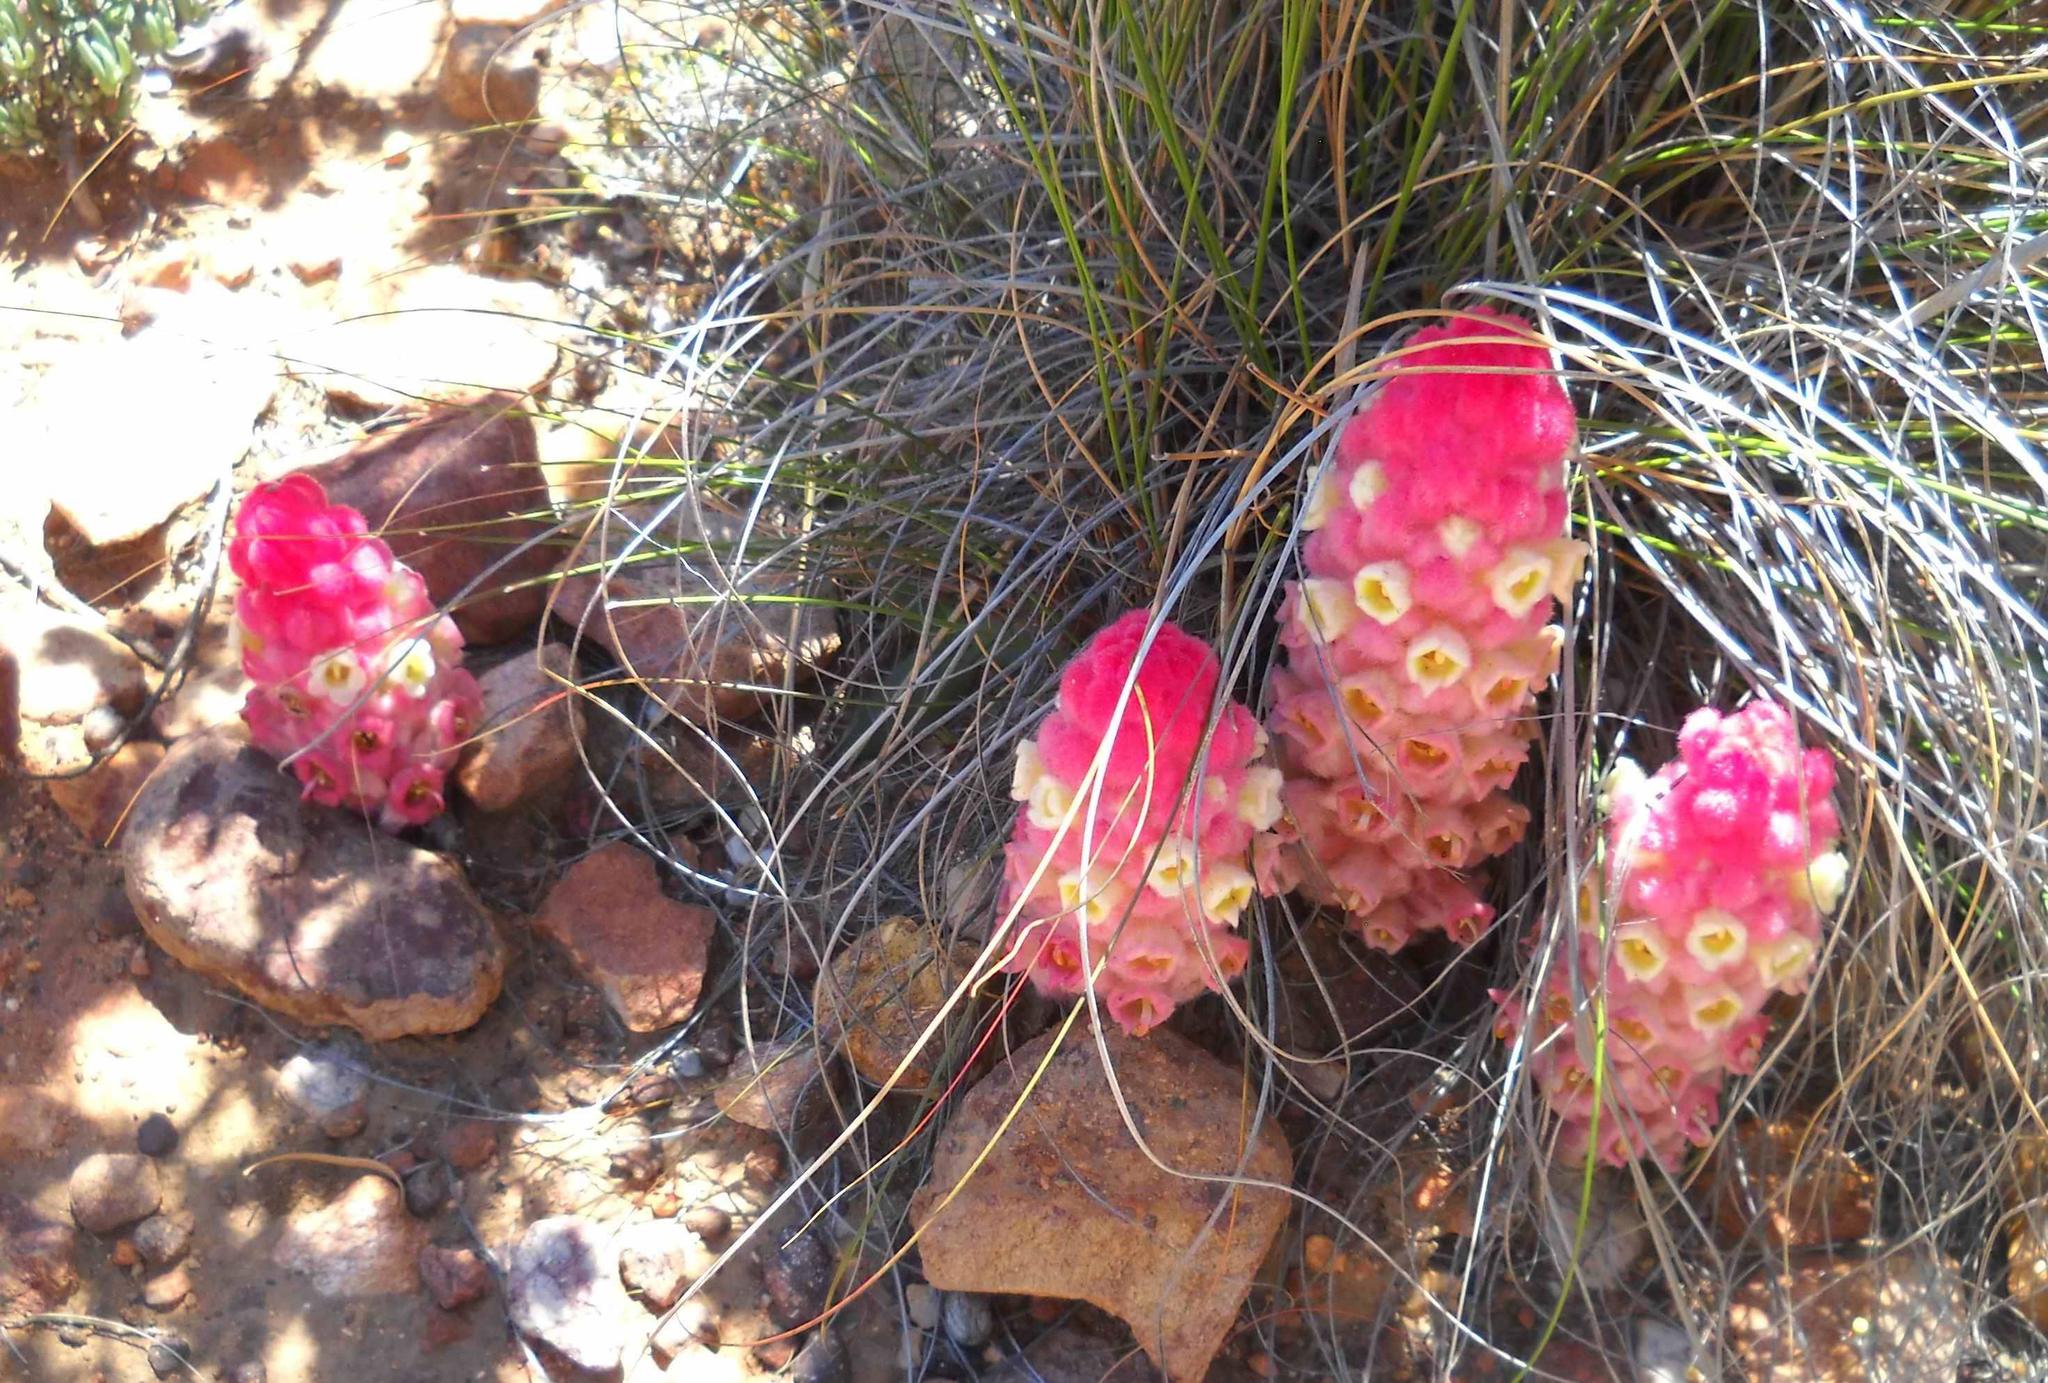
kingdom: Plantae
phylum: Tracheophyta
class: Magnoliopsida
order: Lamiales
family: Orobanchaceae
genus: Harveya
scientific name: Harveya roseoalba
